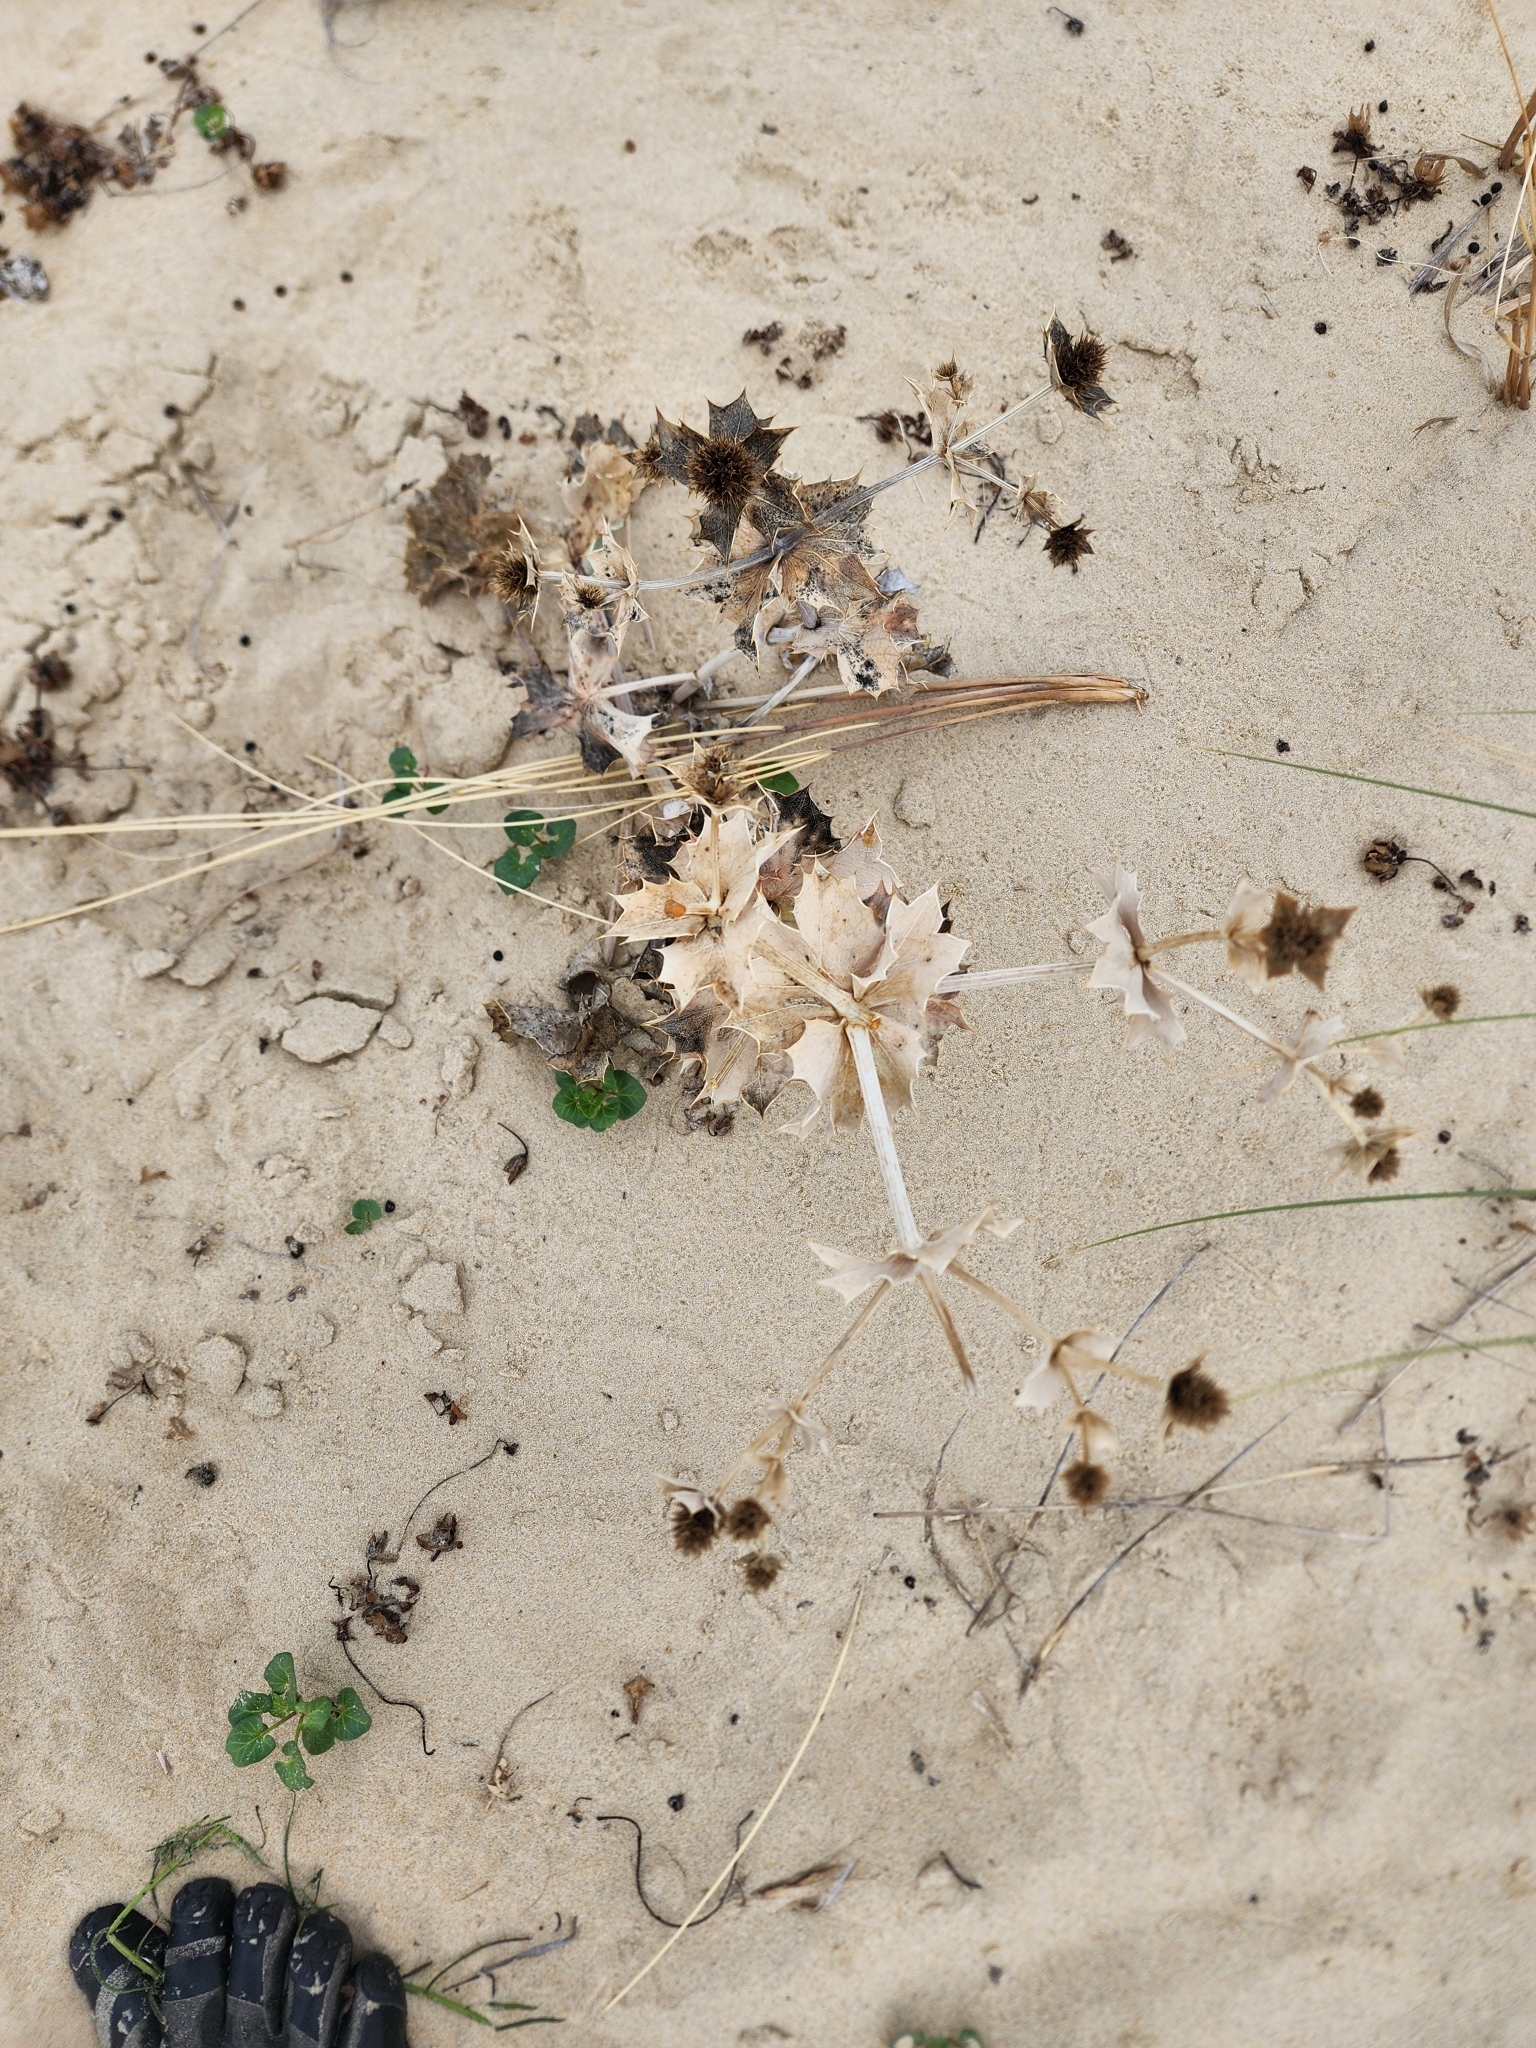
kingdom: Plantae
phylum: Tracheophyta
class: Magnoliopsida
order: Apiales
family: Apiaceae
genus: Eryngium
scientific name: Eryngium maritimum
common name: Sea-holly
